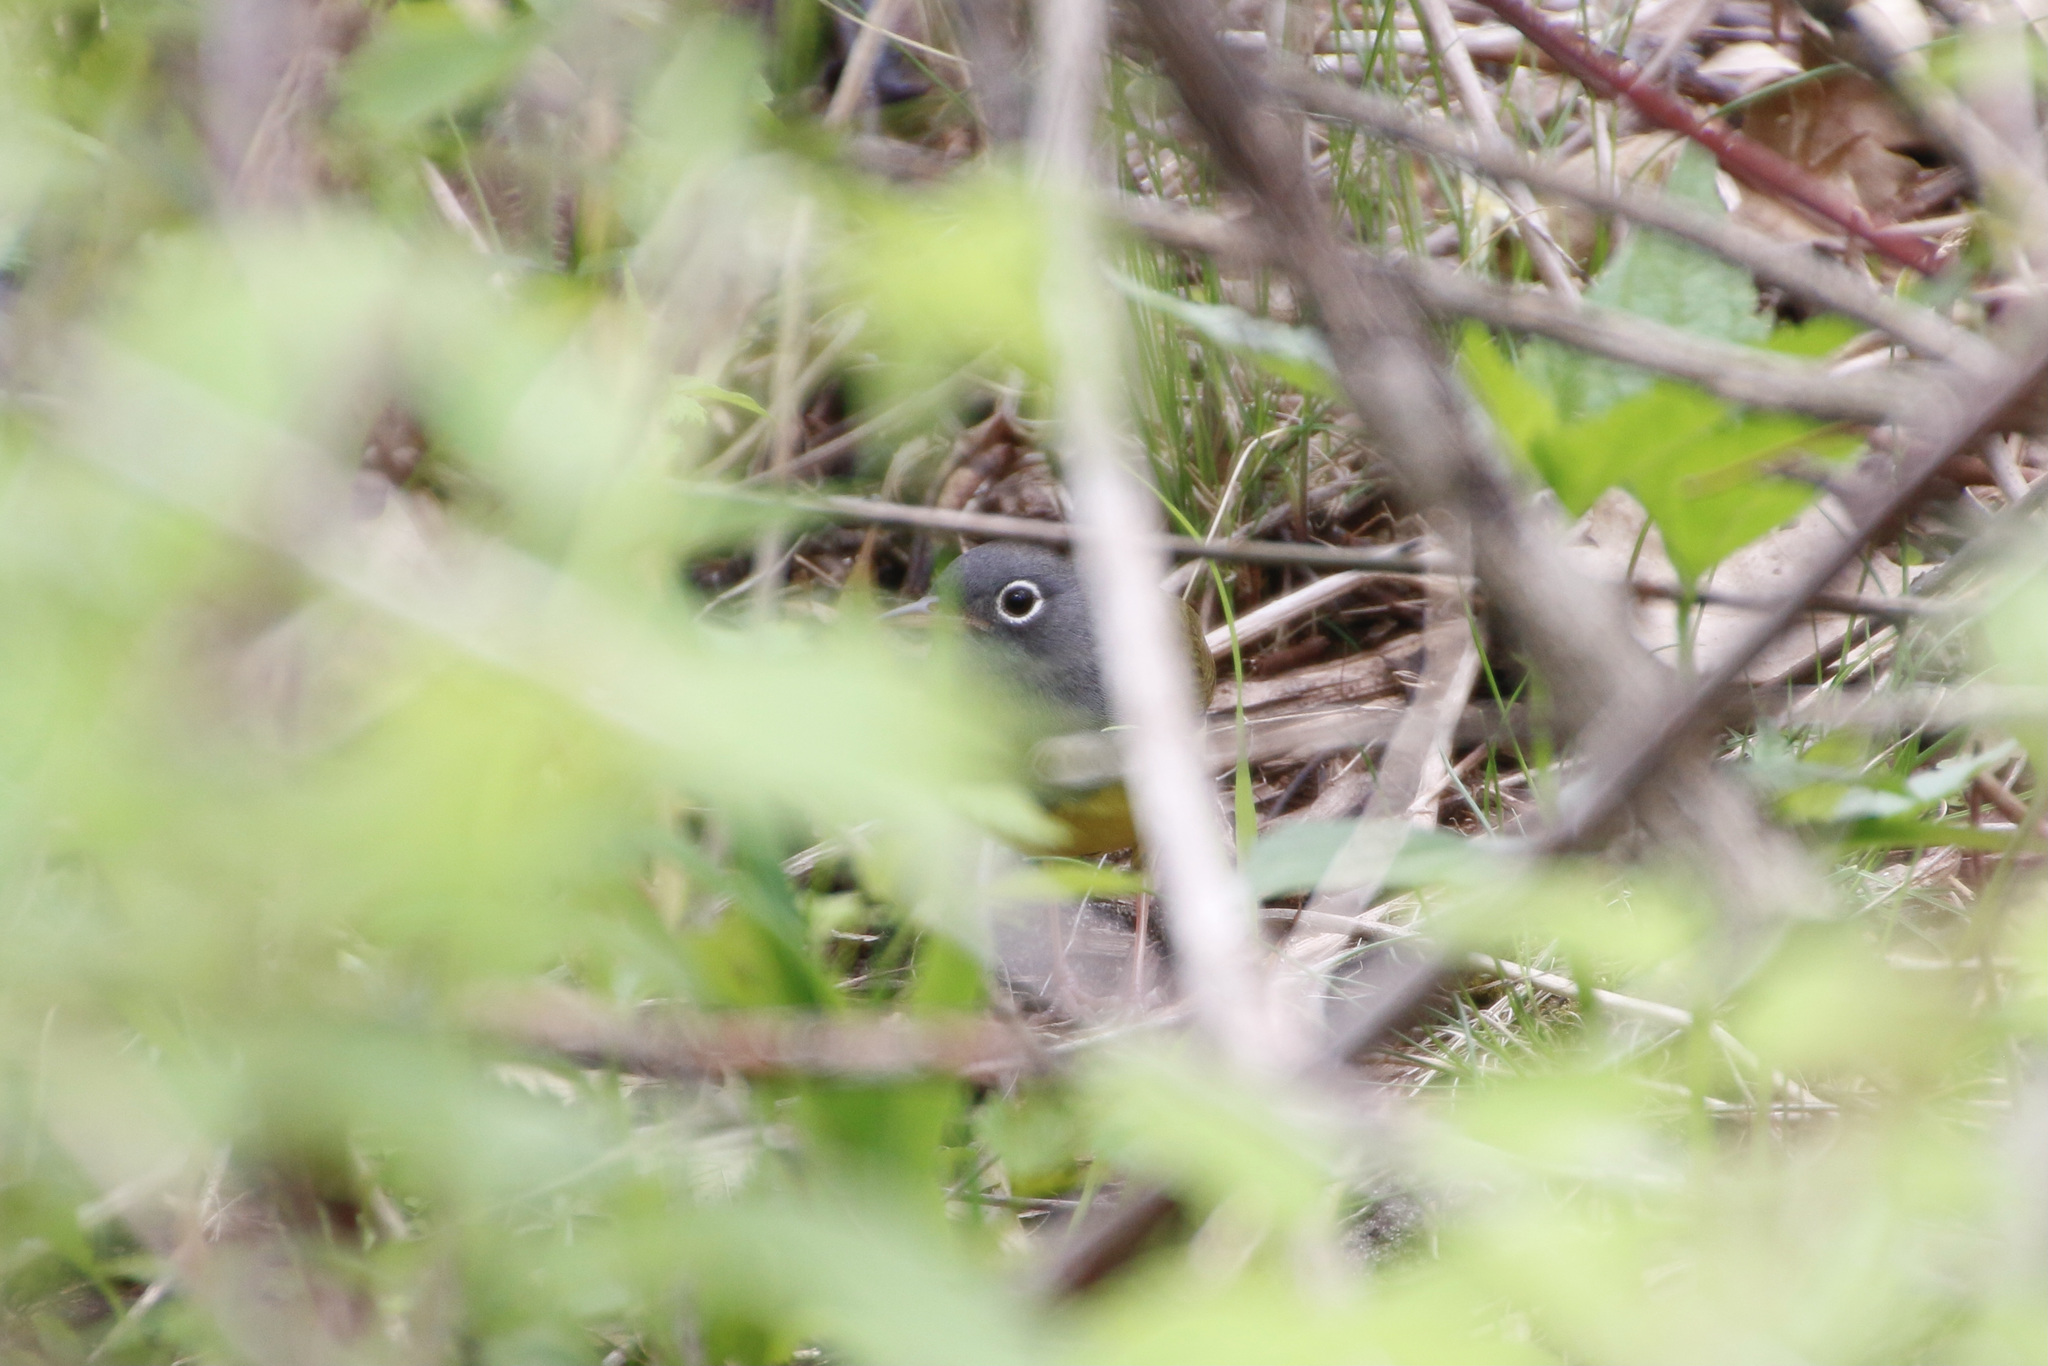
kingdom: Animalia
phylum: Chordata
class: Aves
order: Passeriformes
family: Parulidae
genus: Oporornis
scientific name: Oporornis agilis
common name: Connecticut warbler
